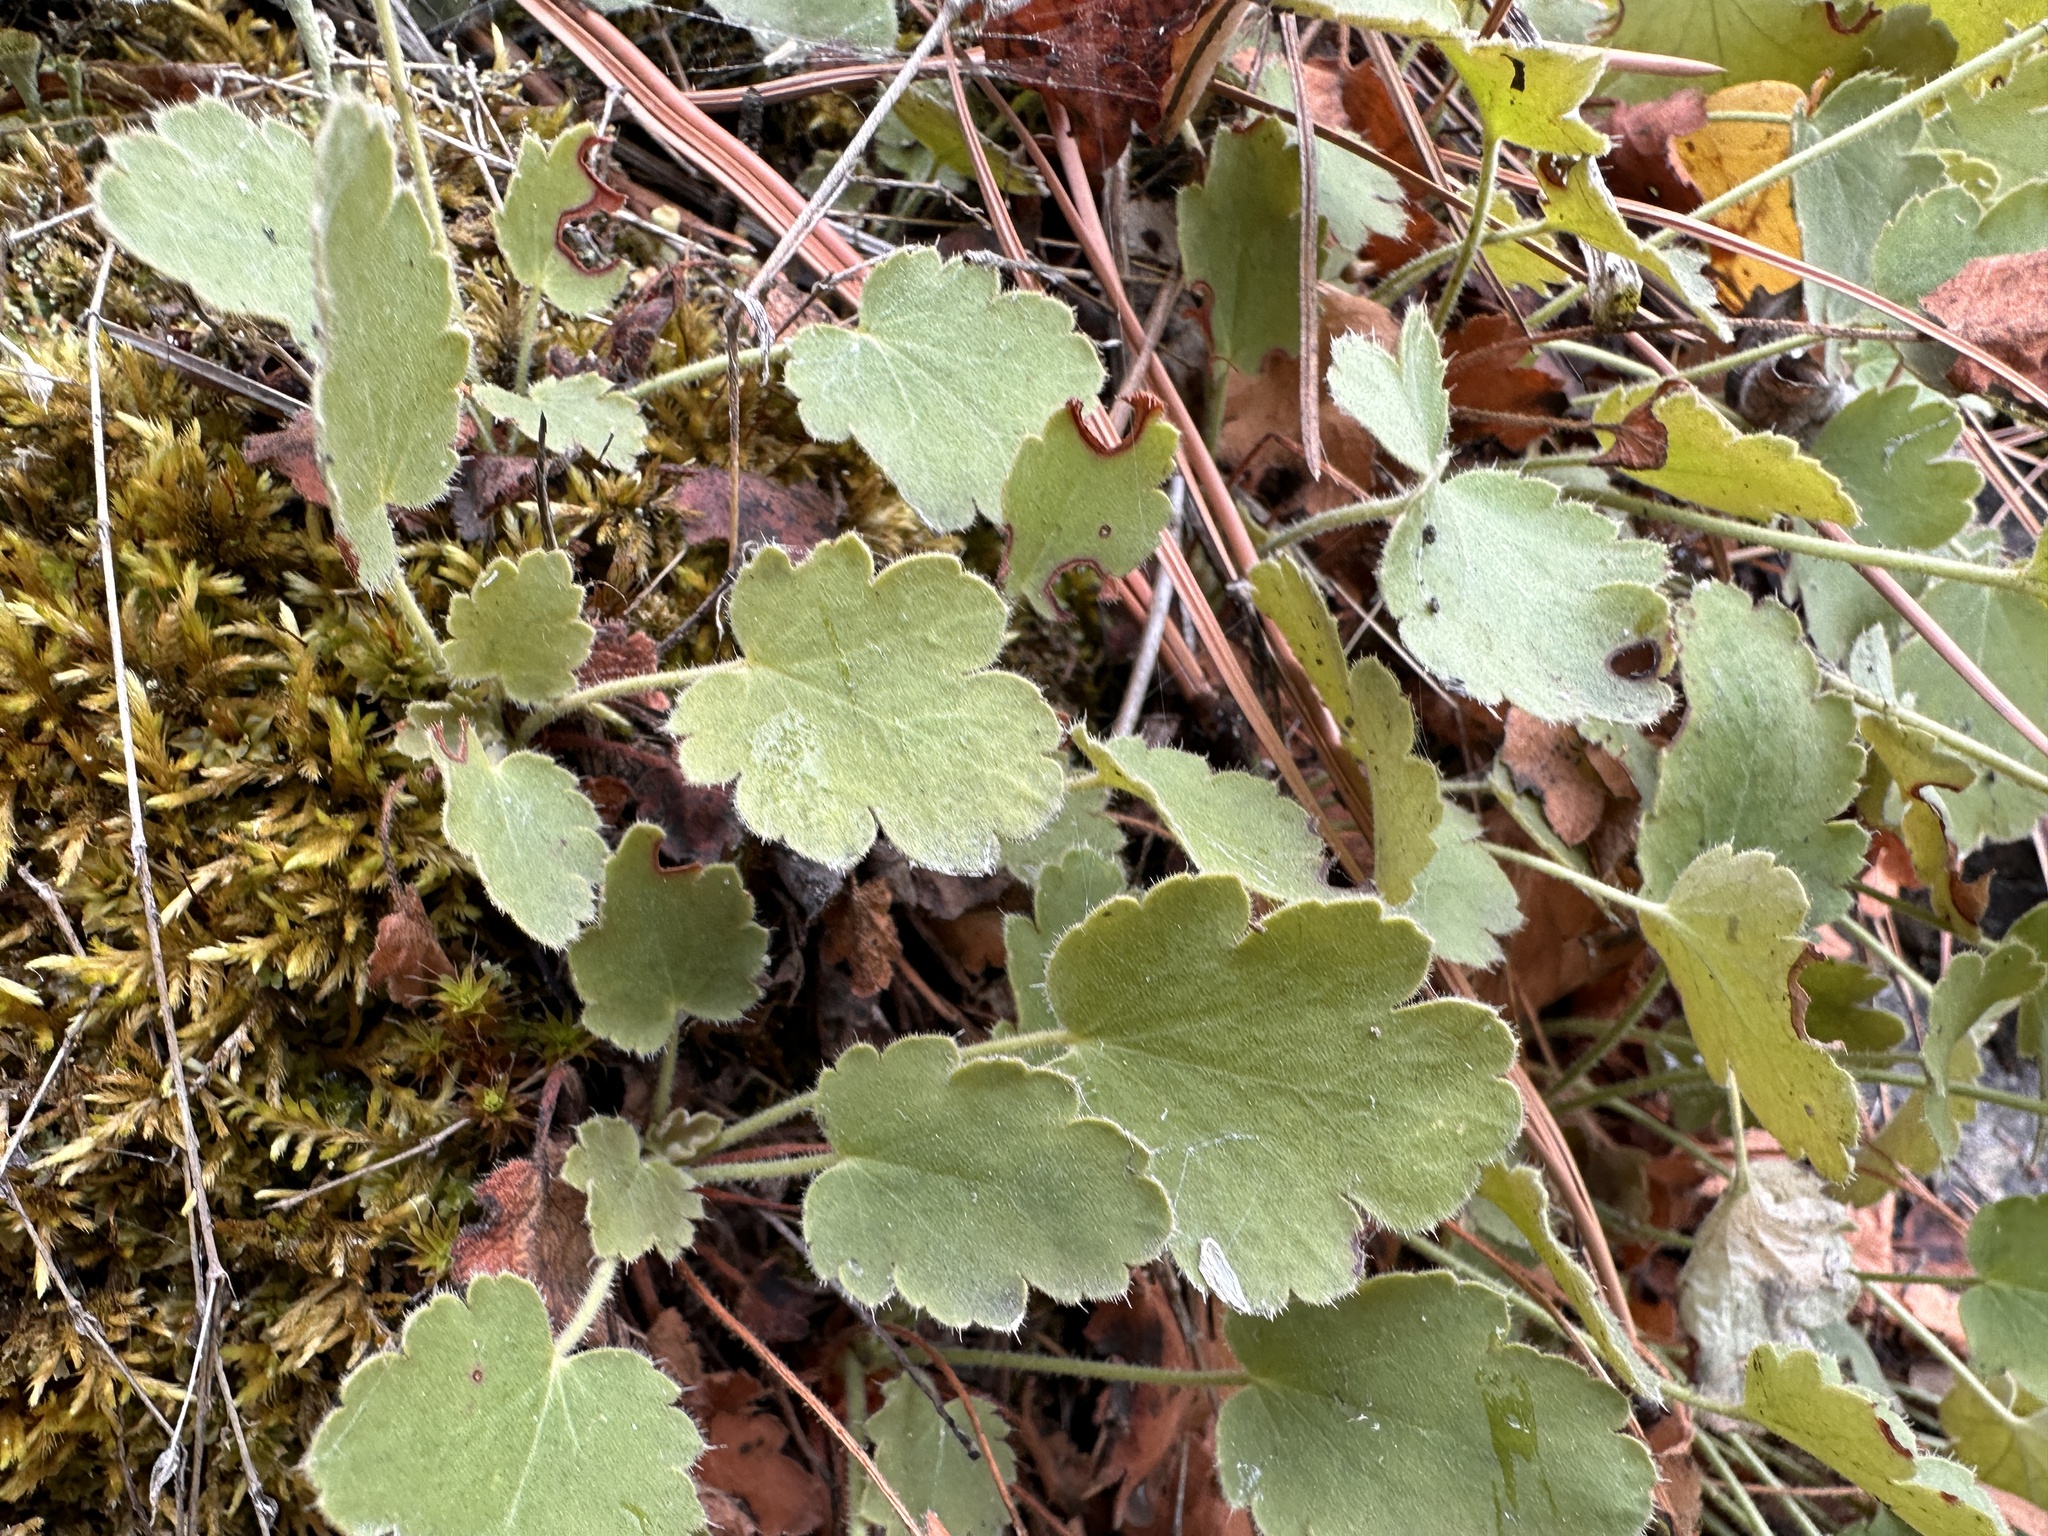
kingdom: Plantae
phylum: Tracheophyta
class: Magnoliopsida
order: Saxifragales
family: Saxifragaceae
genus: Heuchera
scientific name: Heuchera cylindrica
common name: Mat alumroot
